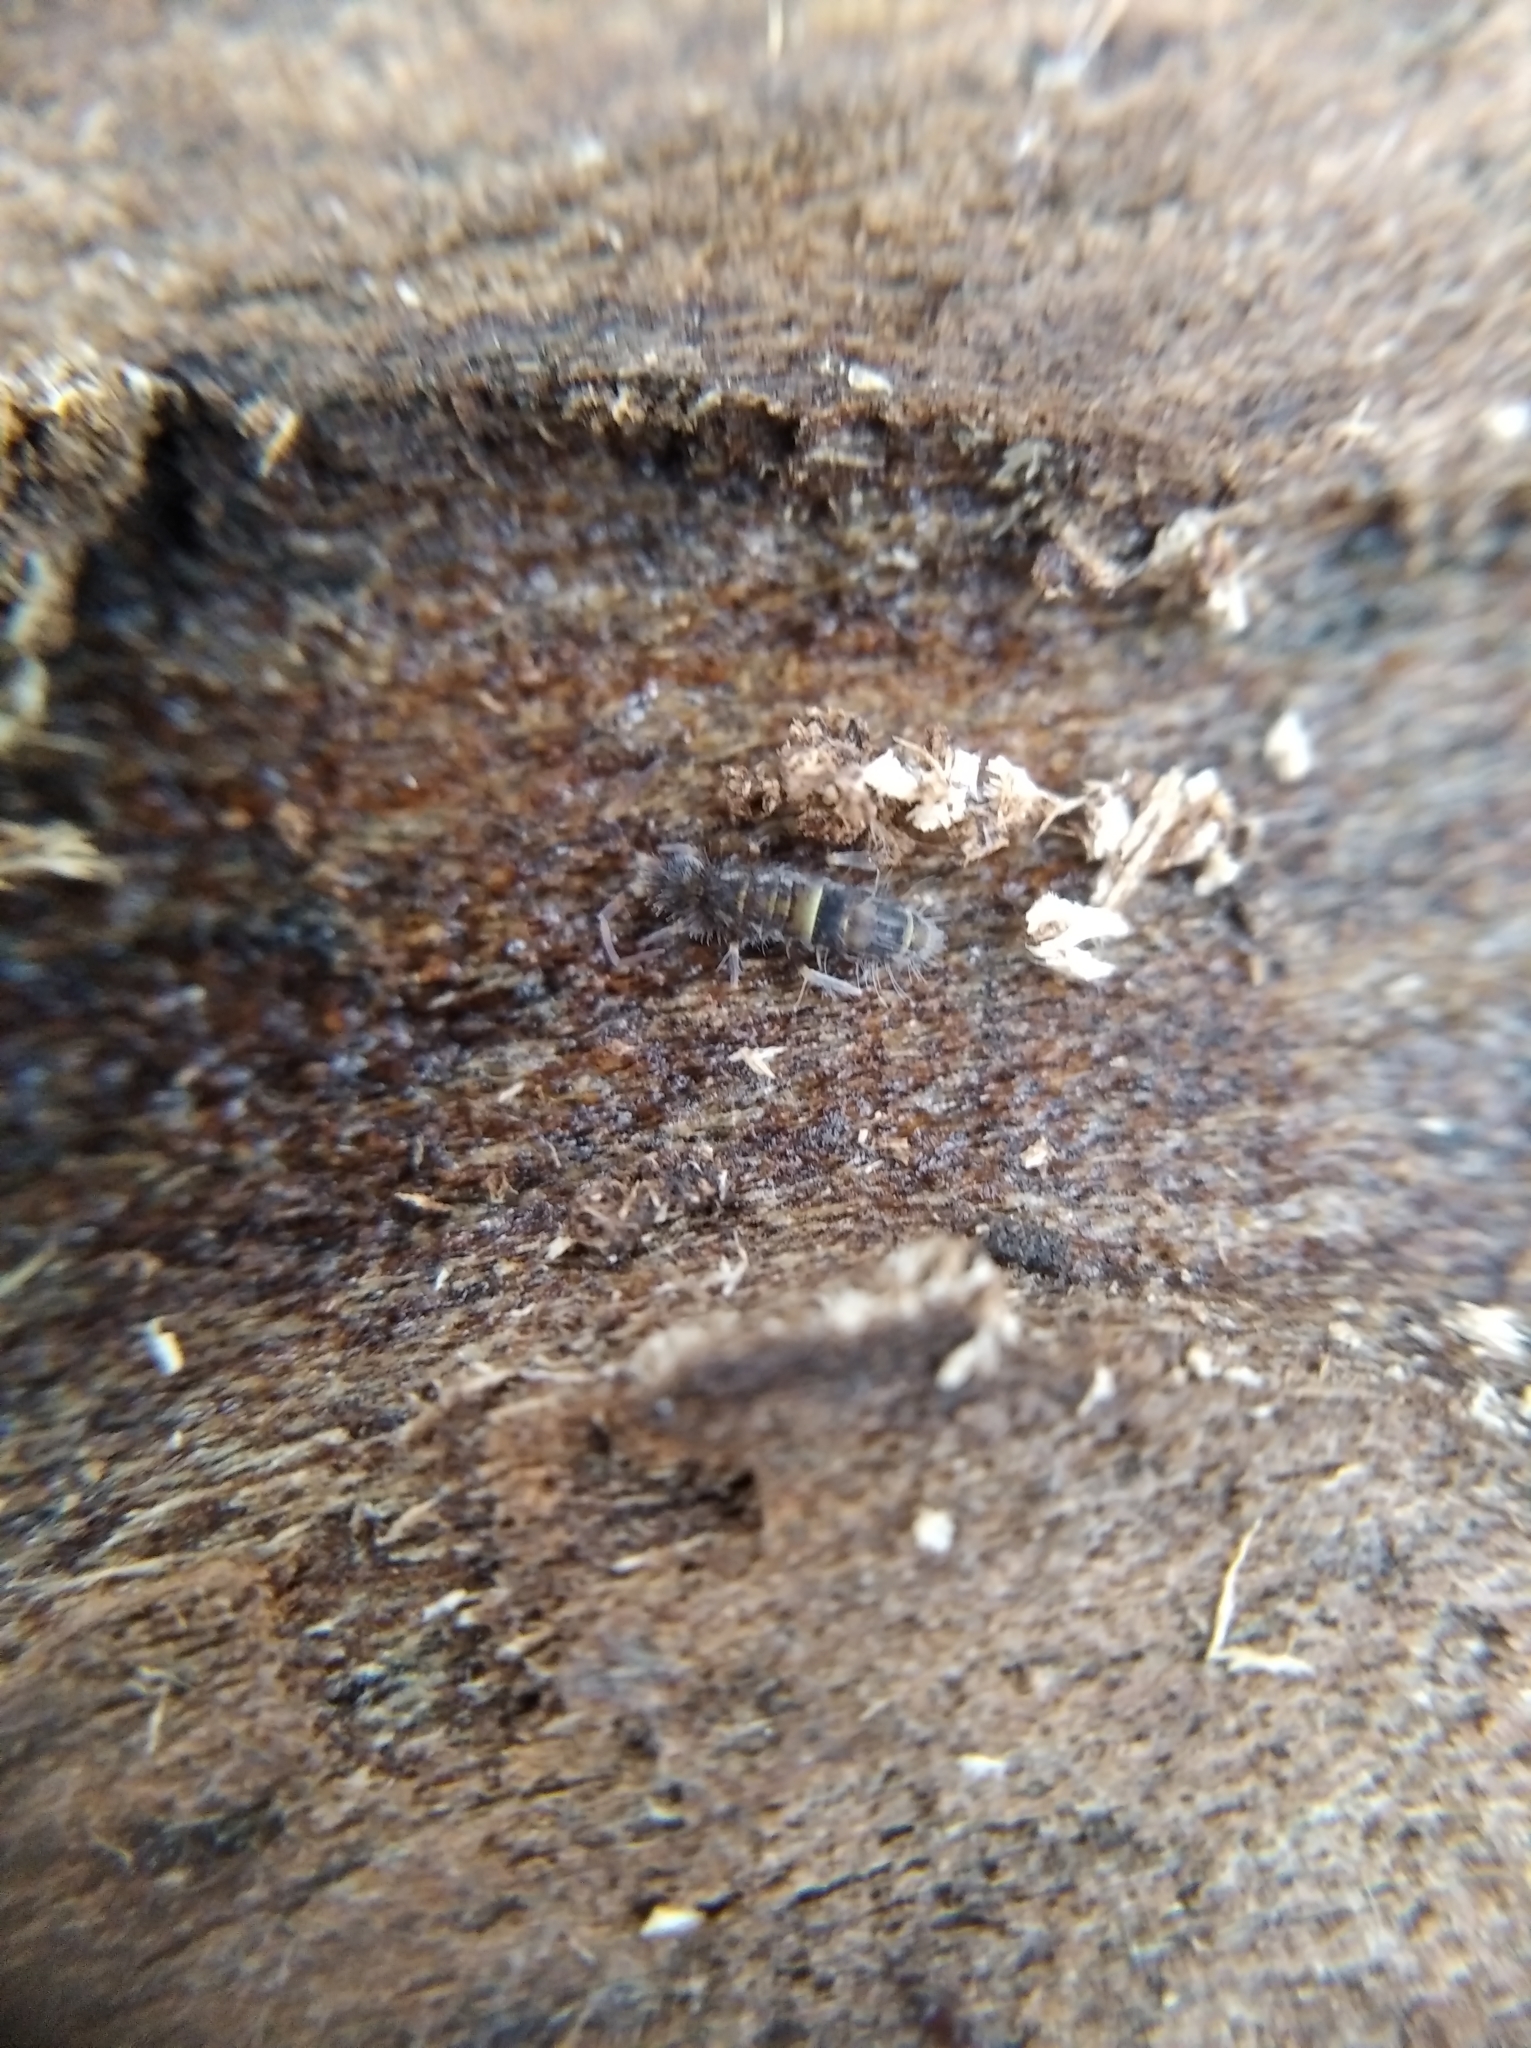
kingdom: Animalia
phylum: Arthropoda
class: Collembola
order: Entomobryomorpha
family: Orchesellidae
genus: Orchesella
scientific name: Orchesella cincta
